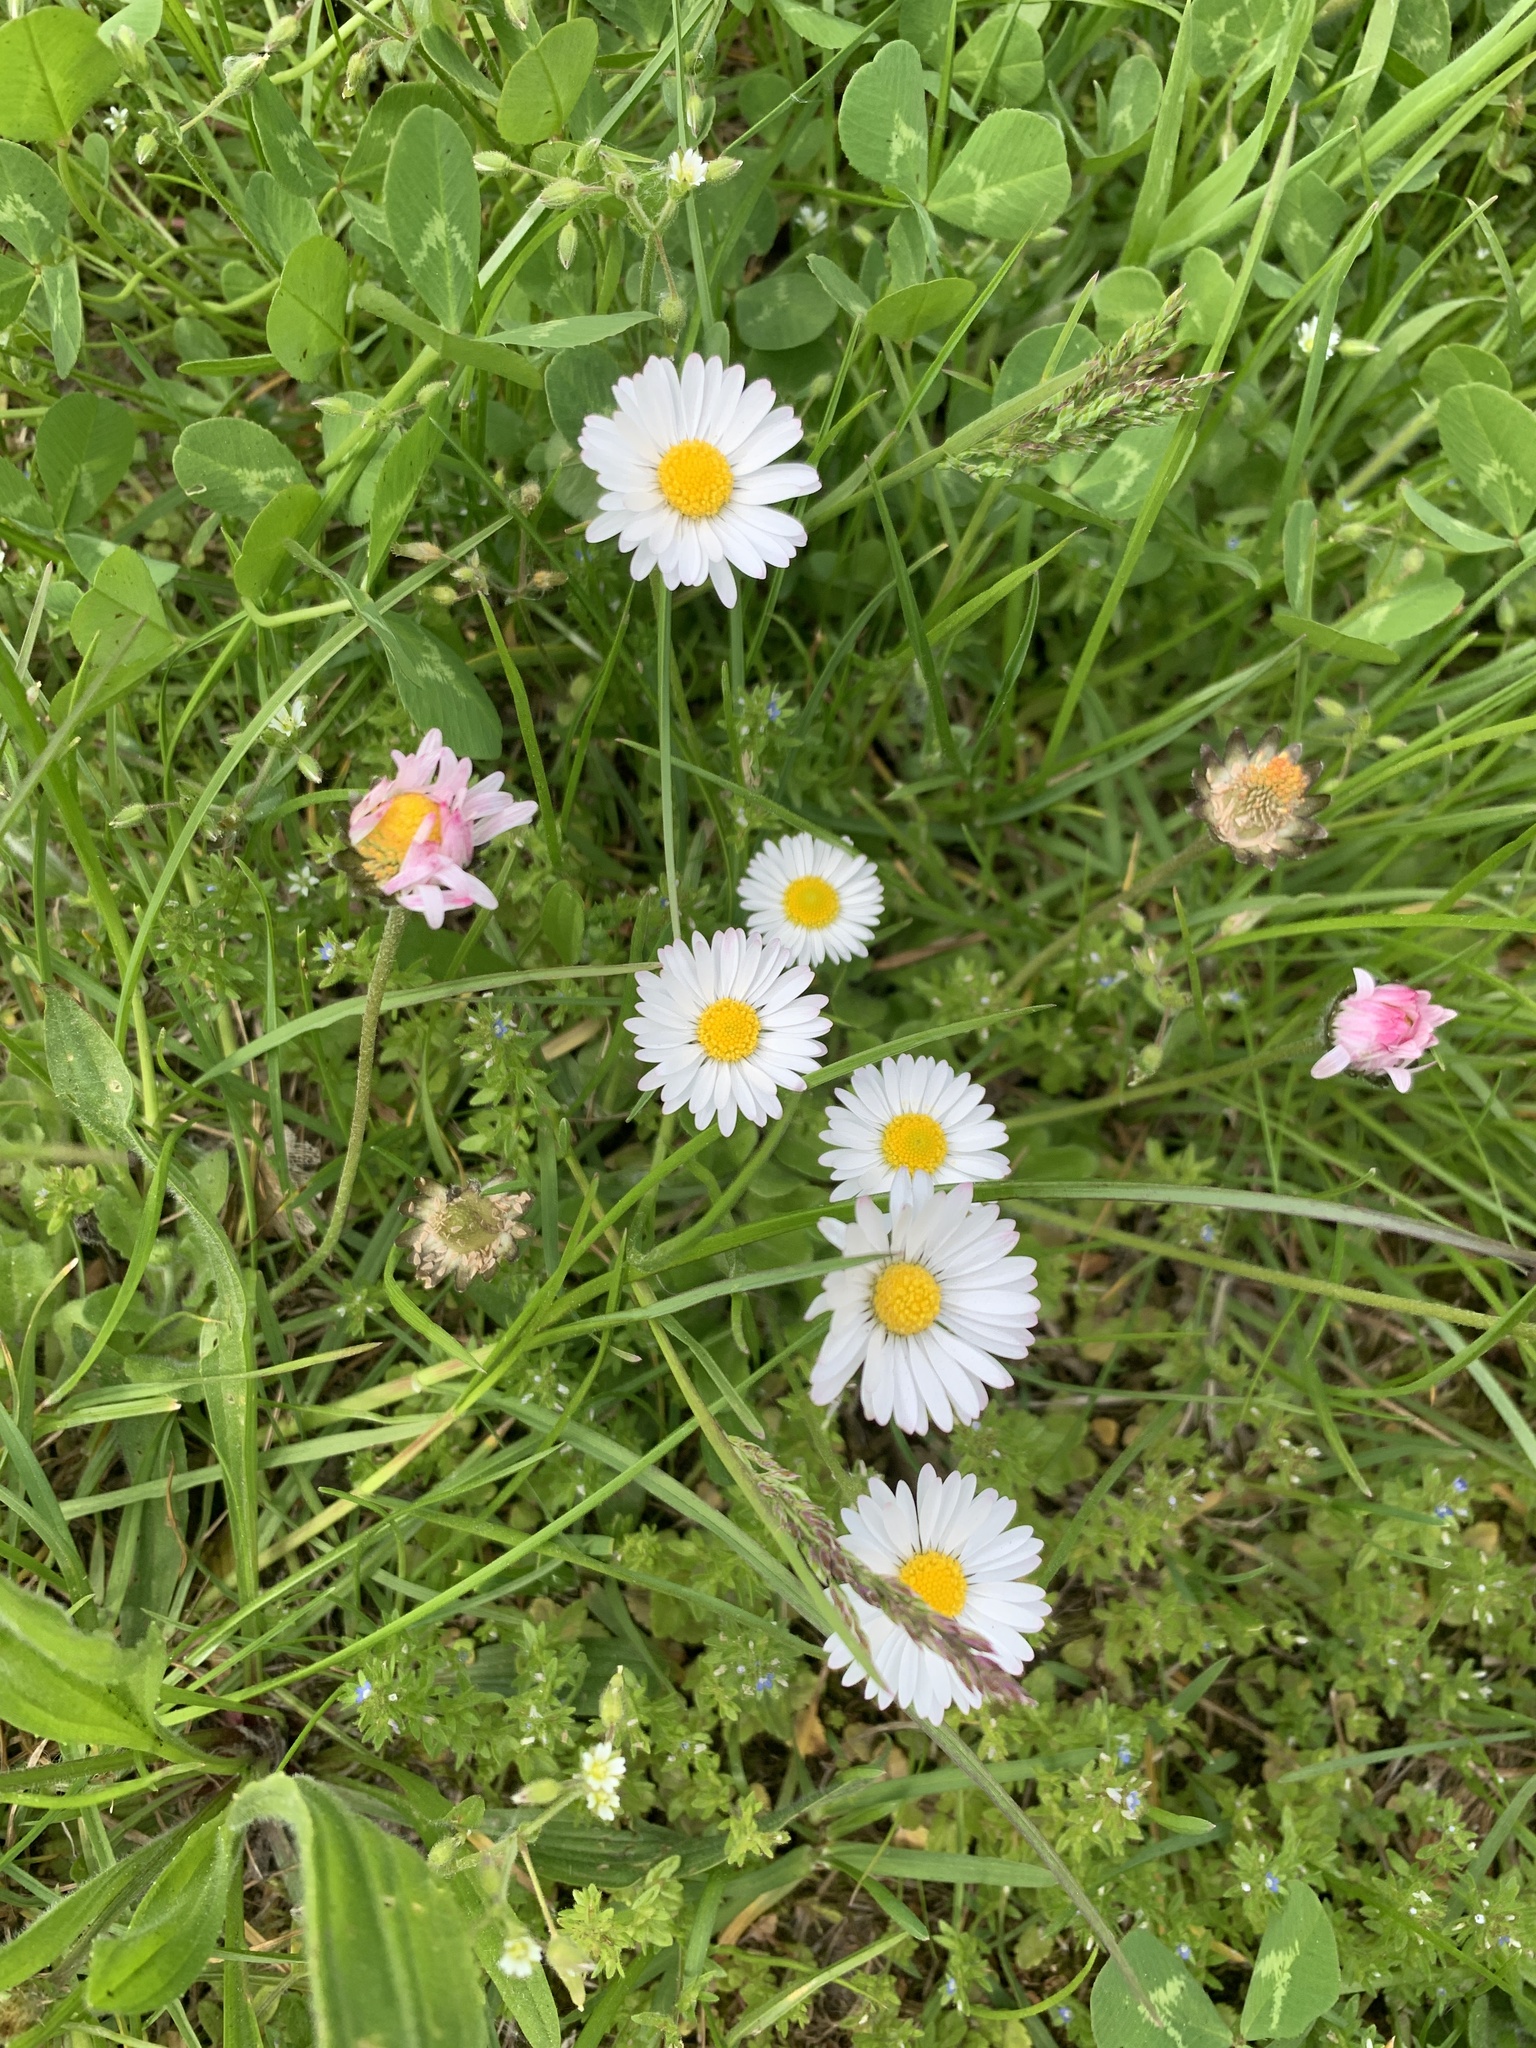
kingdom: Plantae
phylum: Tracheophyta
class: Magnoliopsida
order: Asterales
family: Asteraceae
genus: Bellis
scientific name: Bellis perennis
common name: Lawndaisy
